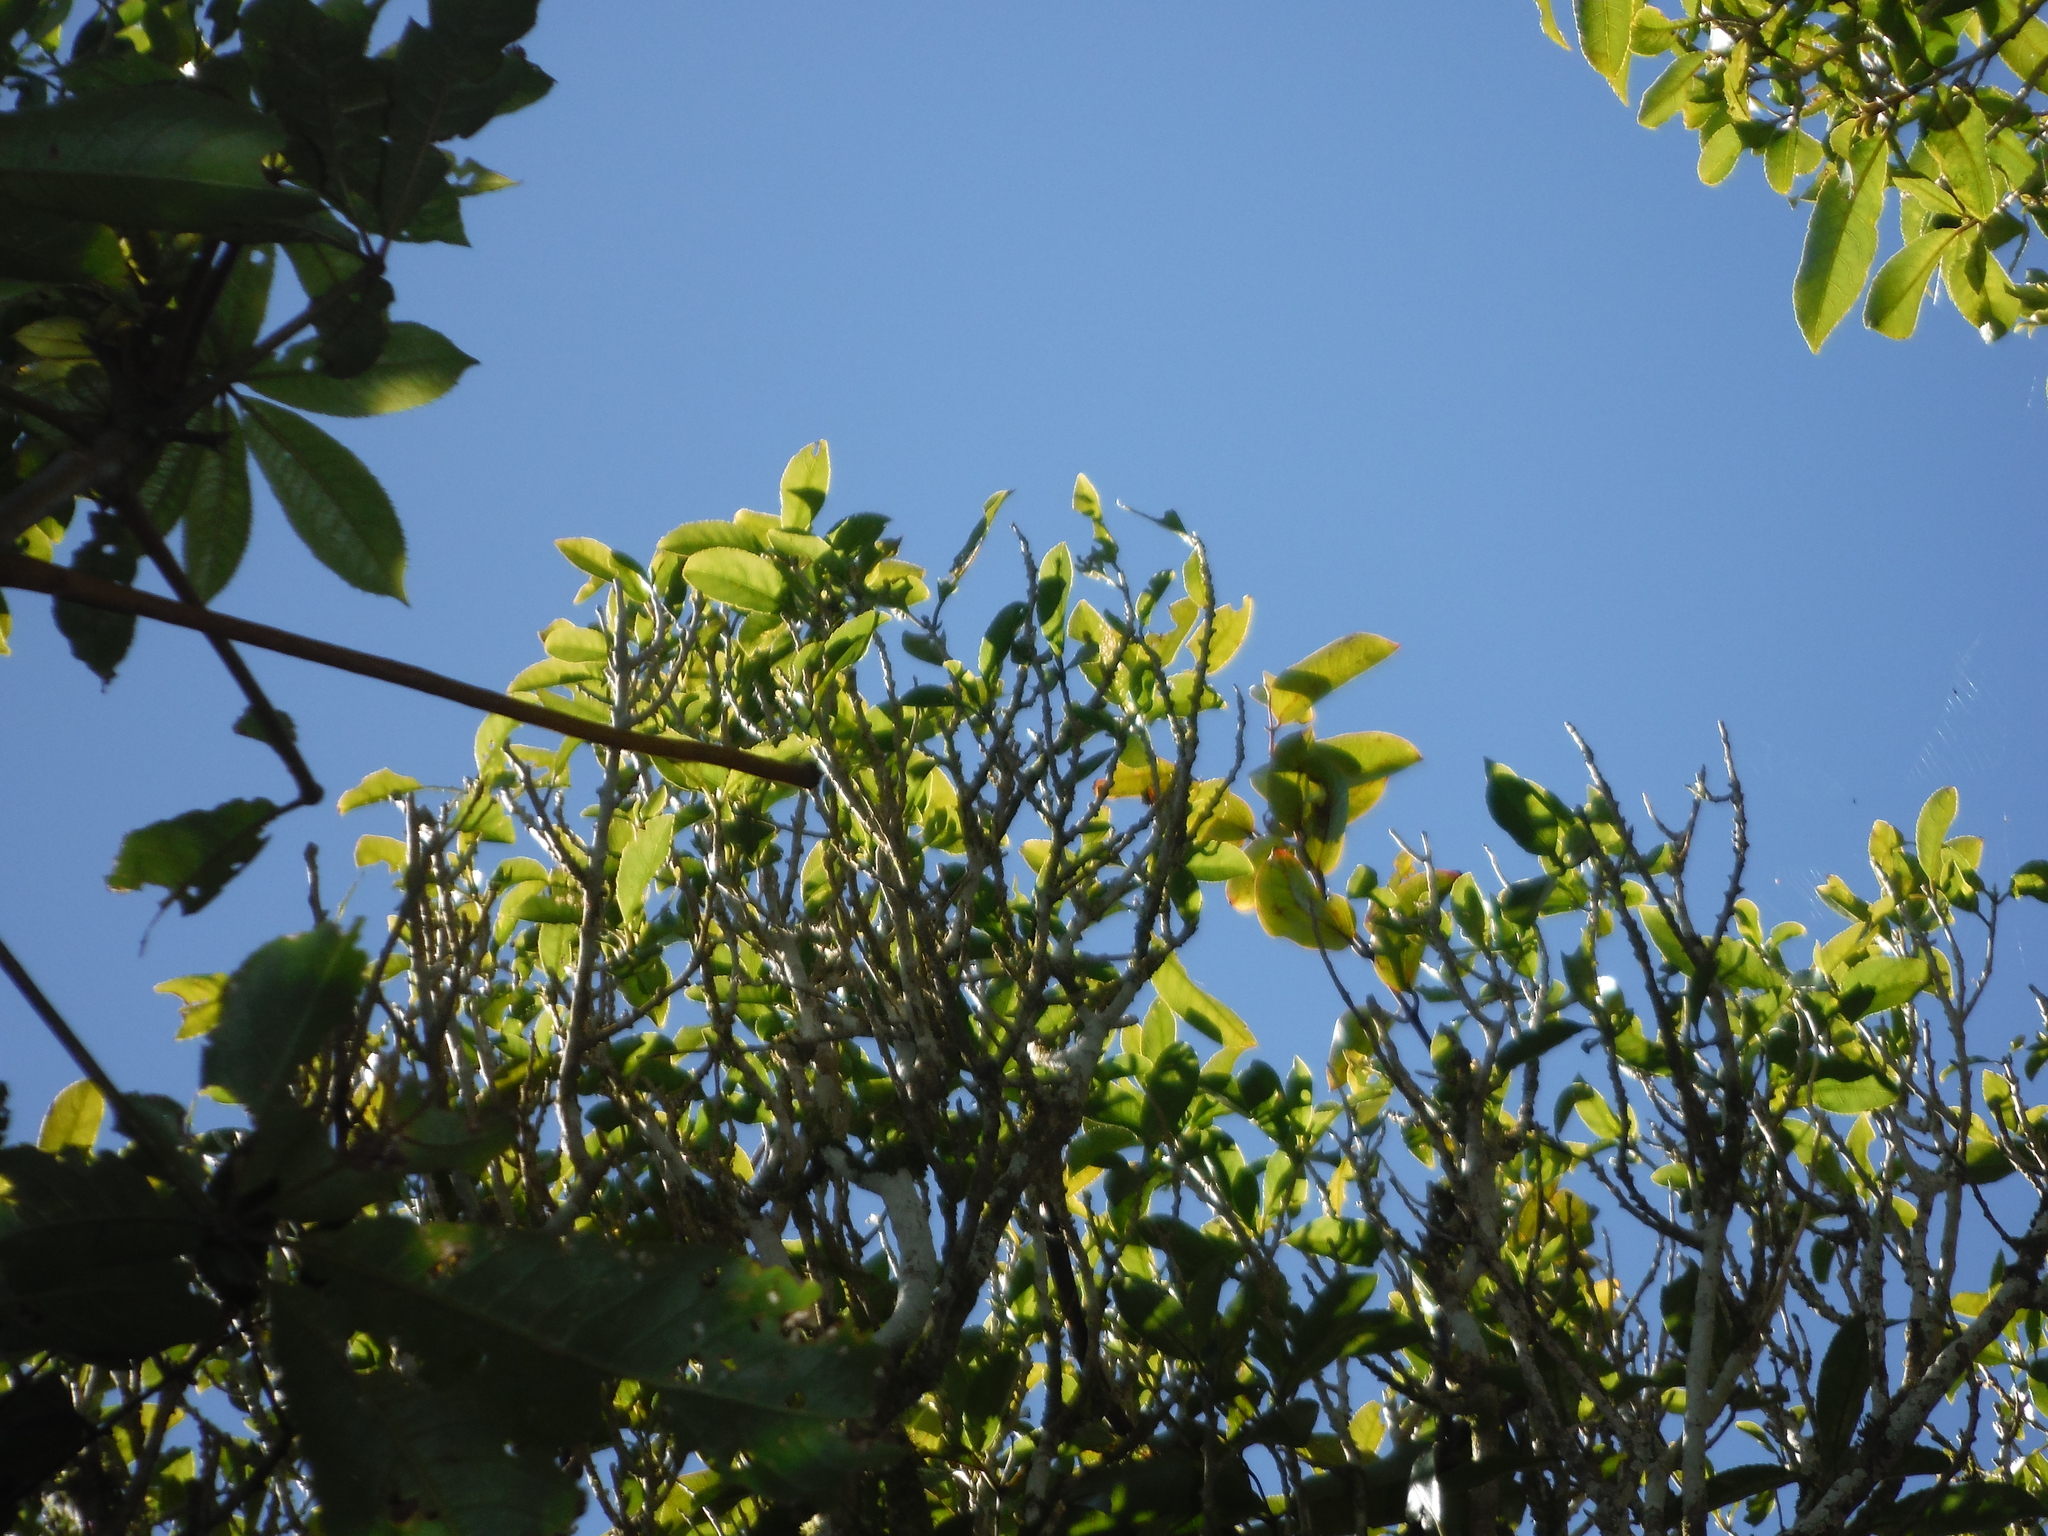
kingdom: Plantae
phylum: Tracheophyta
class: Magnoliopsida
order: Malpighiales
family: Violaceae
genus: Melicytus
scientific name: Melicytus ramiflorus
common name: Mahoe
